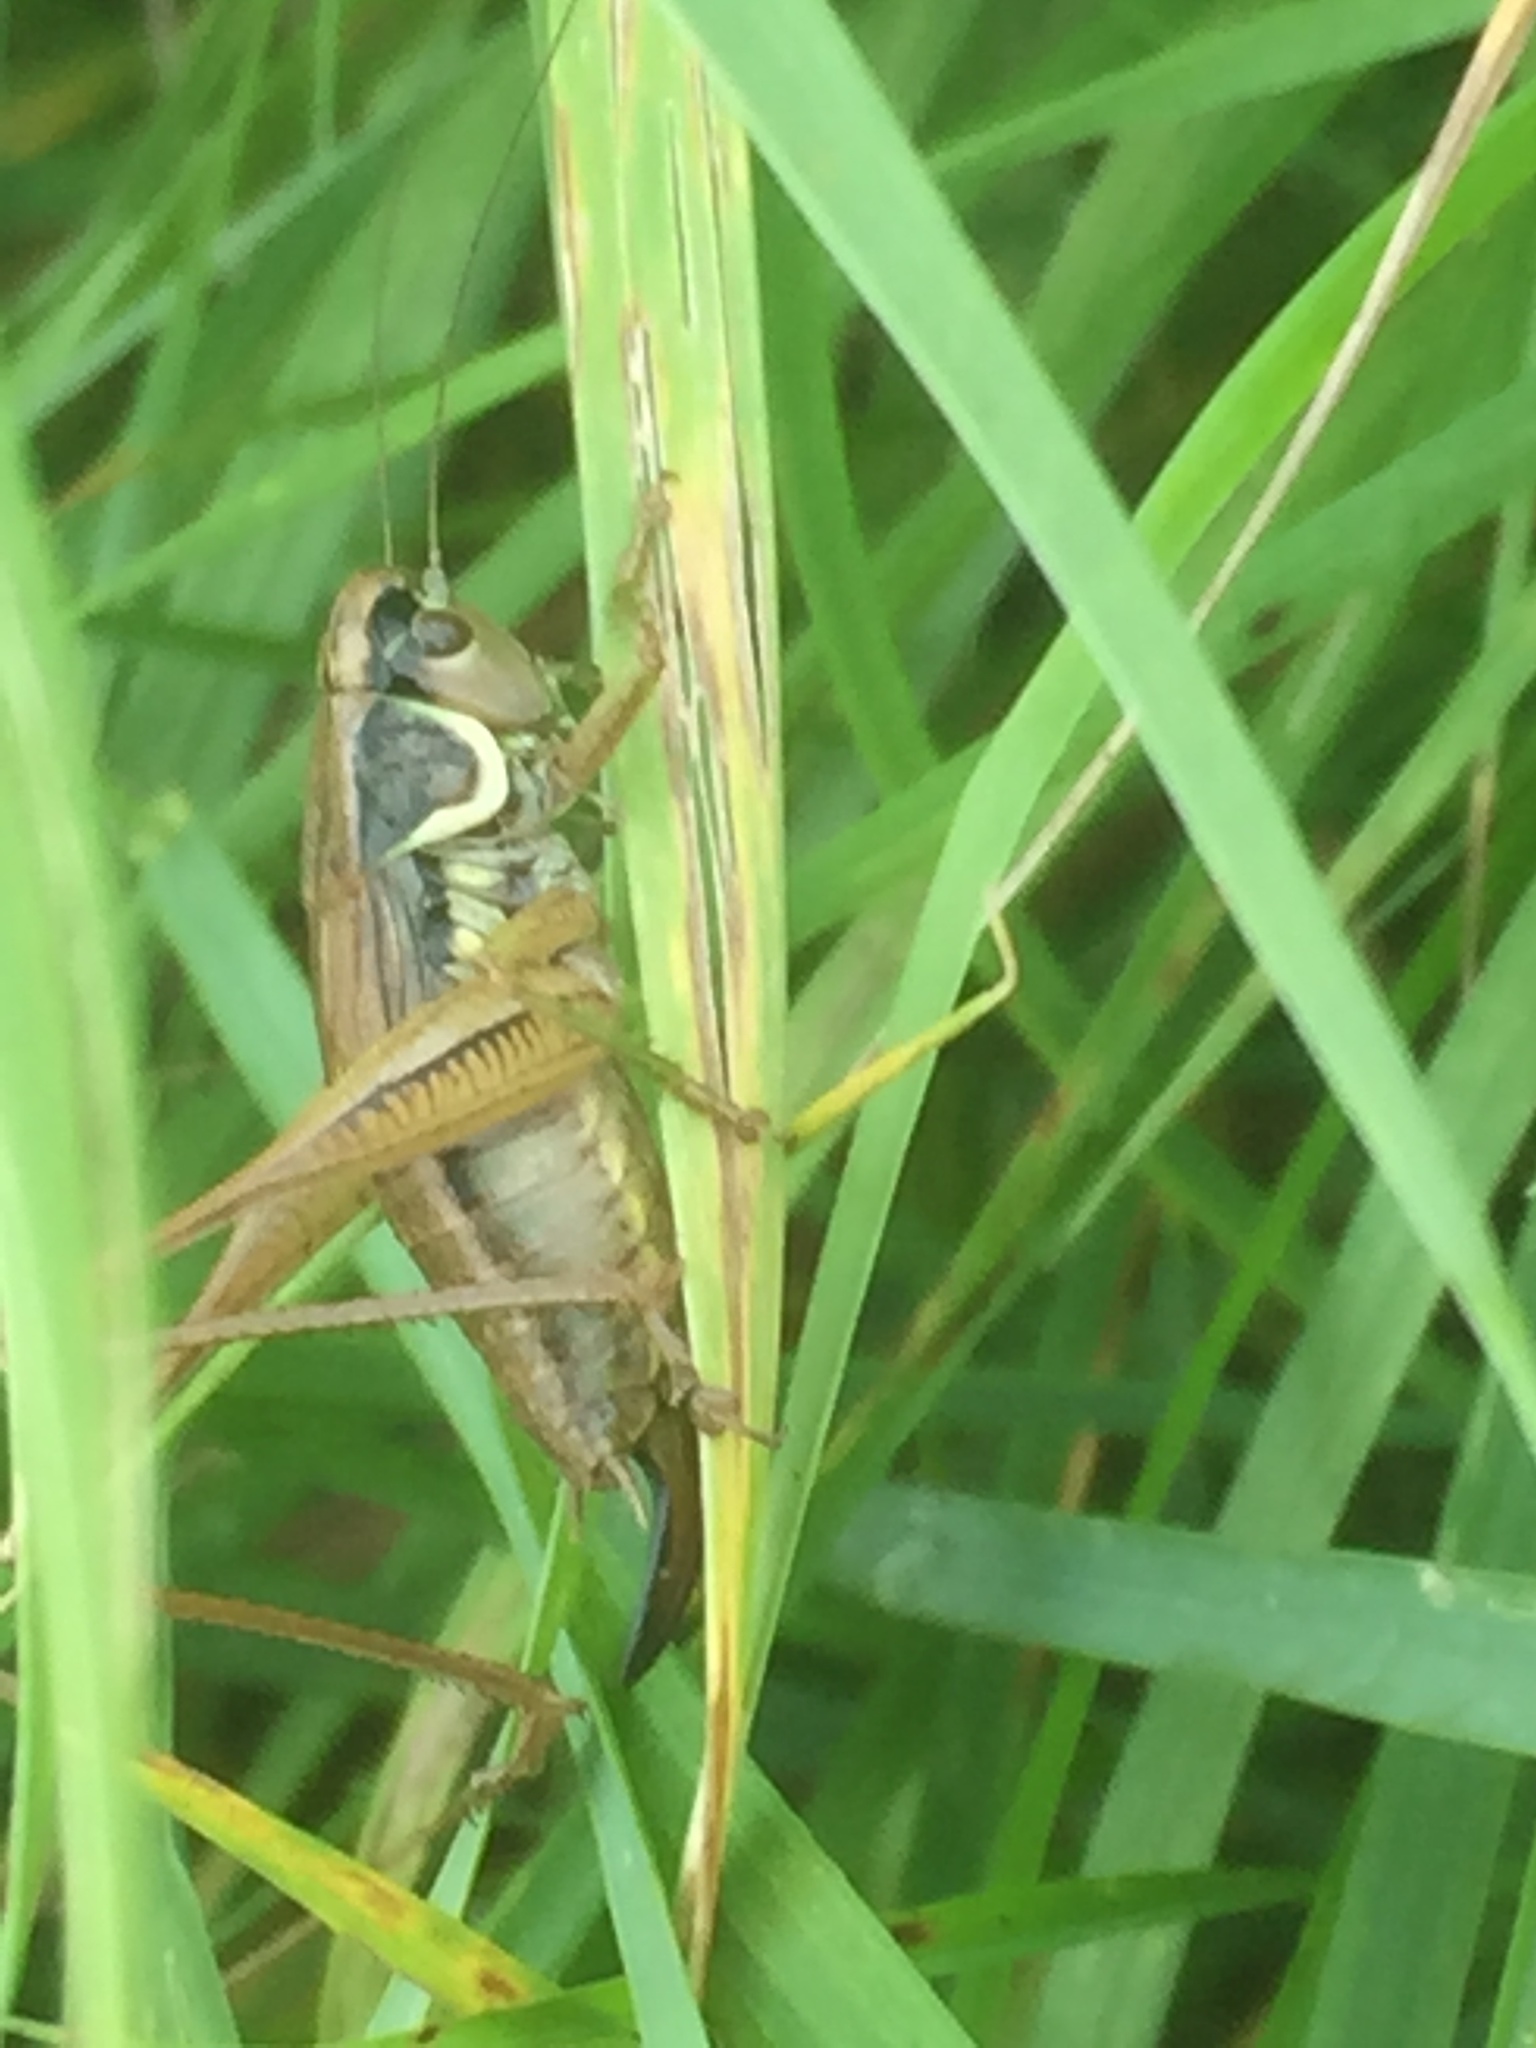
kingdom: Animalia
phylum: Arthropoda
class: Insecta
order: Orthoptera
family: Tettigoniidae
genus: Roeseliana
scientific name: Roeseliana roeselii
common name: Roesel's bush cricket
